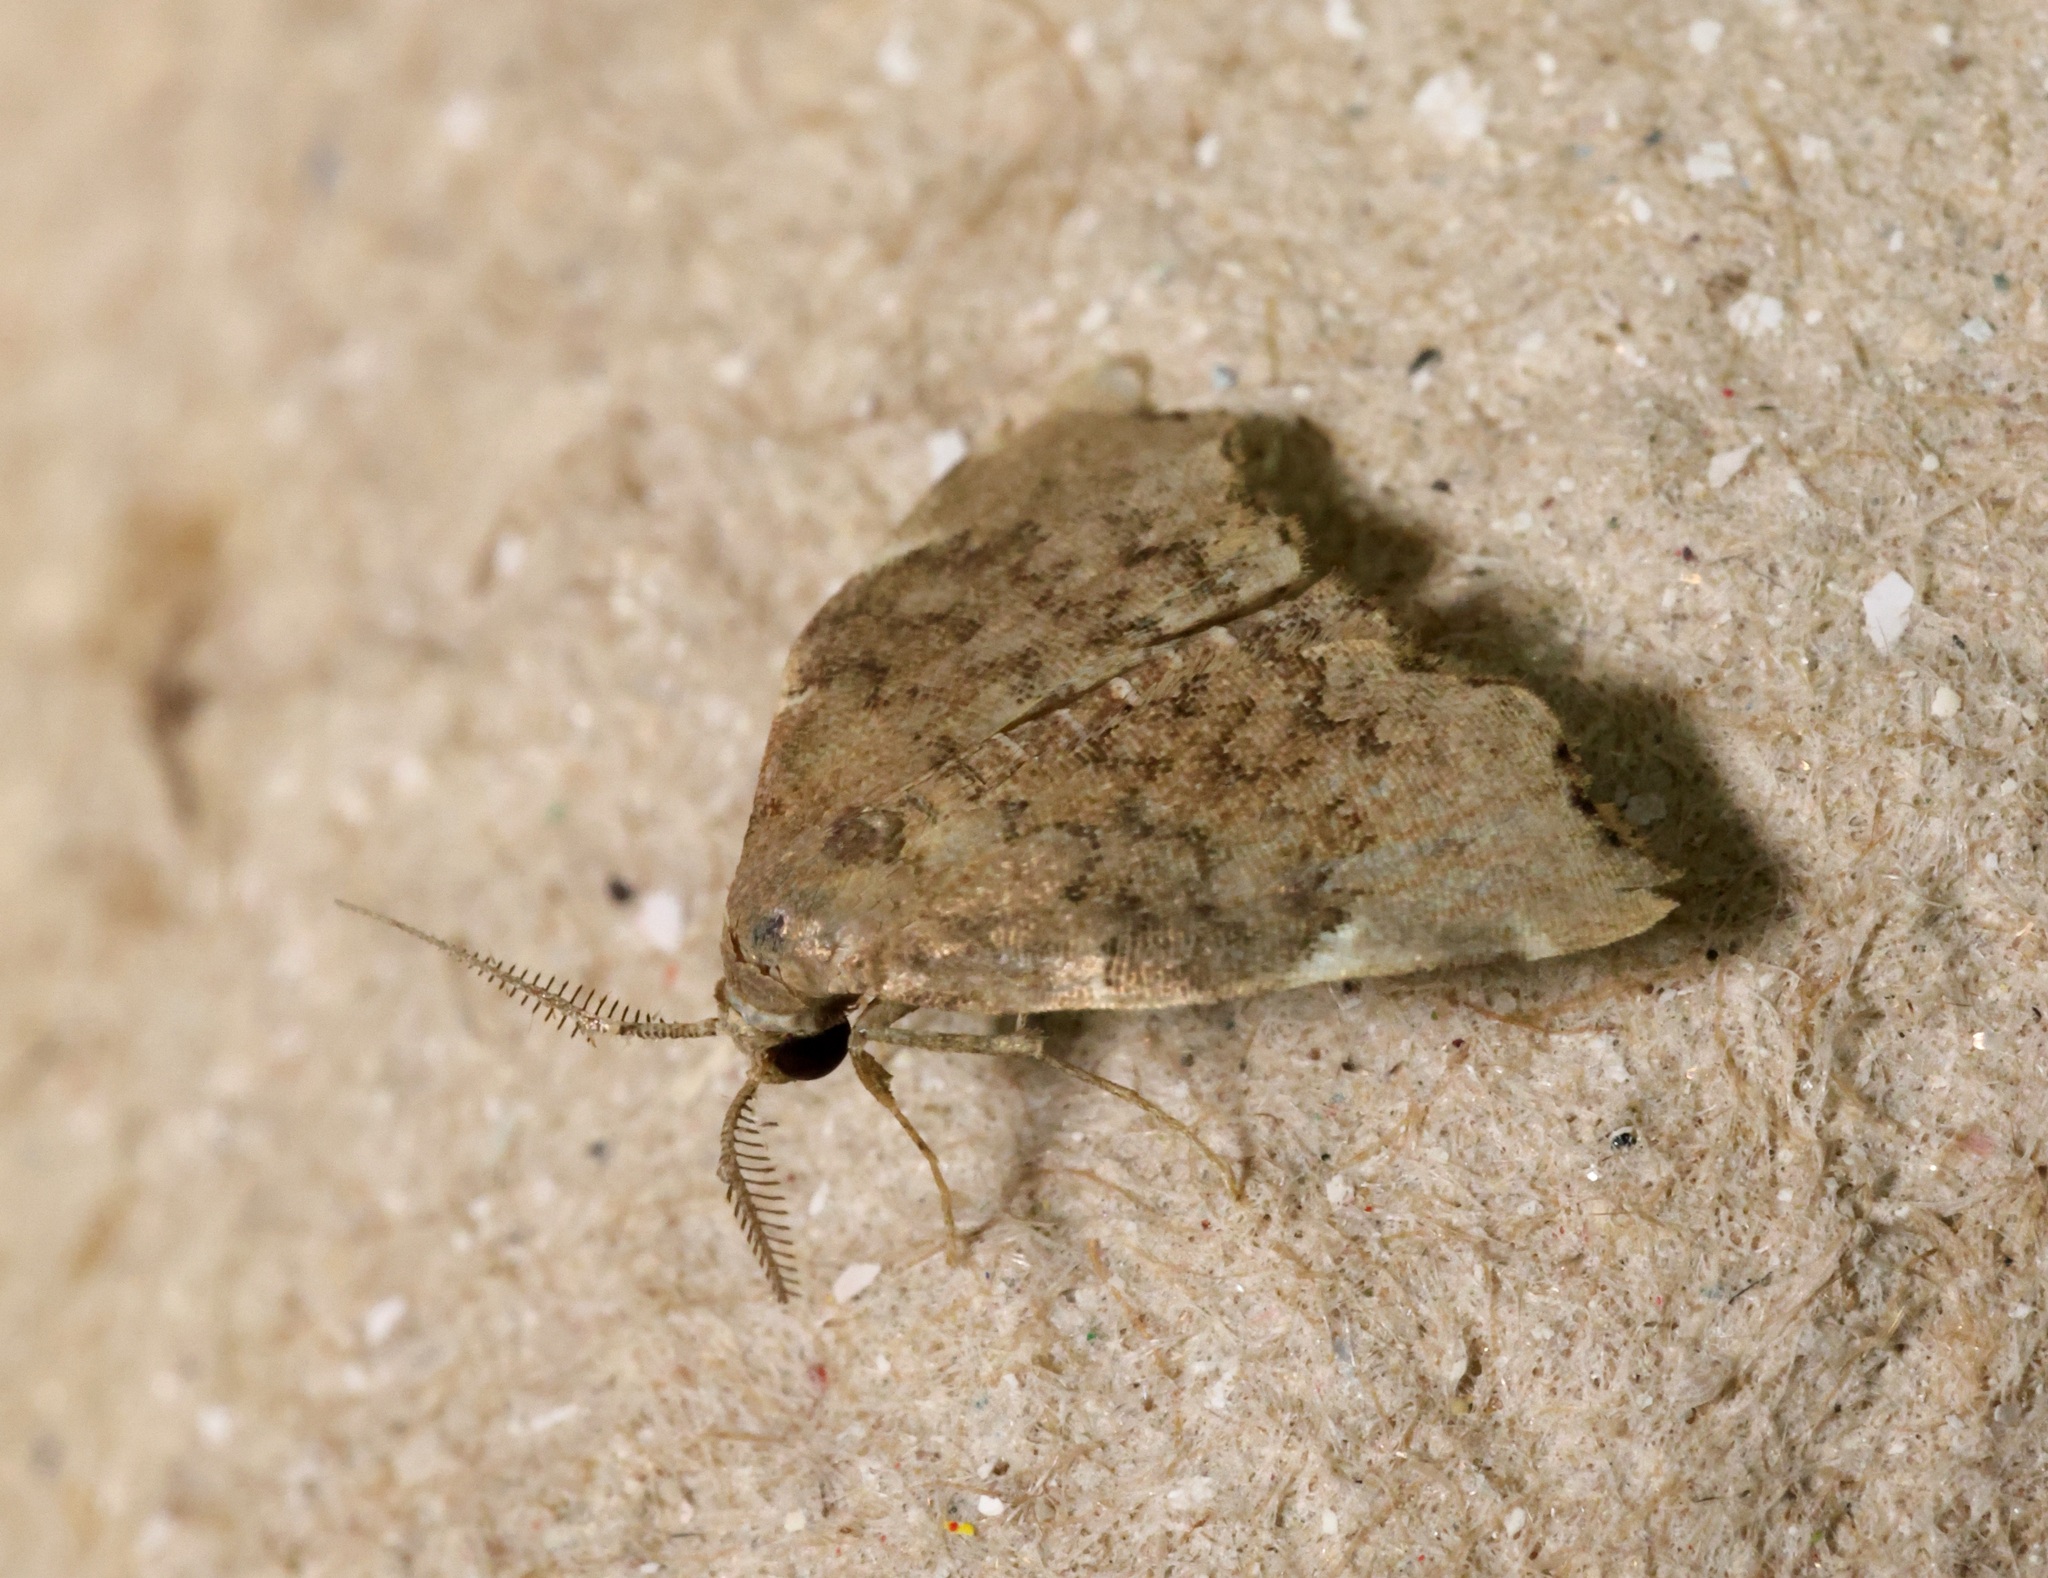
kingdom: Animalia
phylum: Arthropoda
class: Insecta
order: Lepidoptera
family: Erebidae
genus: Goniocraspedon
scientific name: Goniocraspedon mistura
